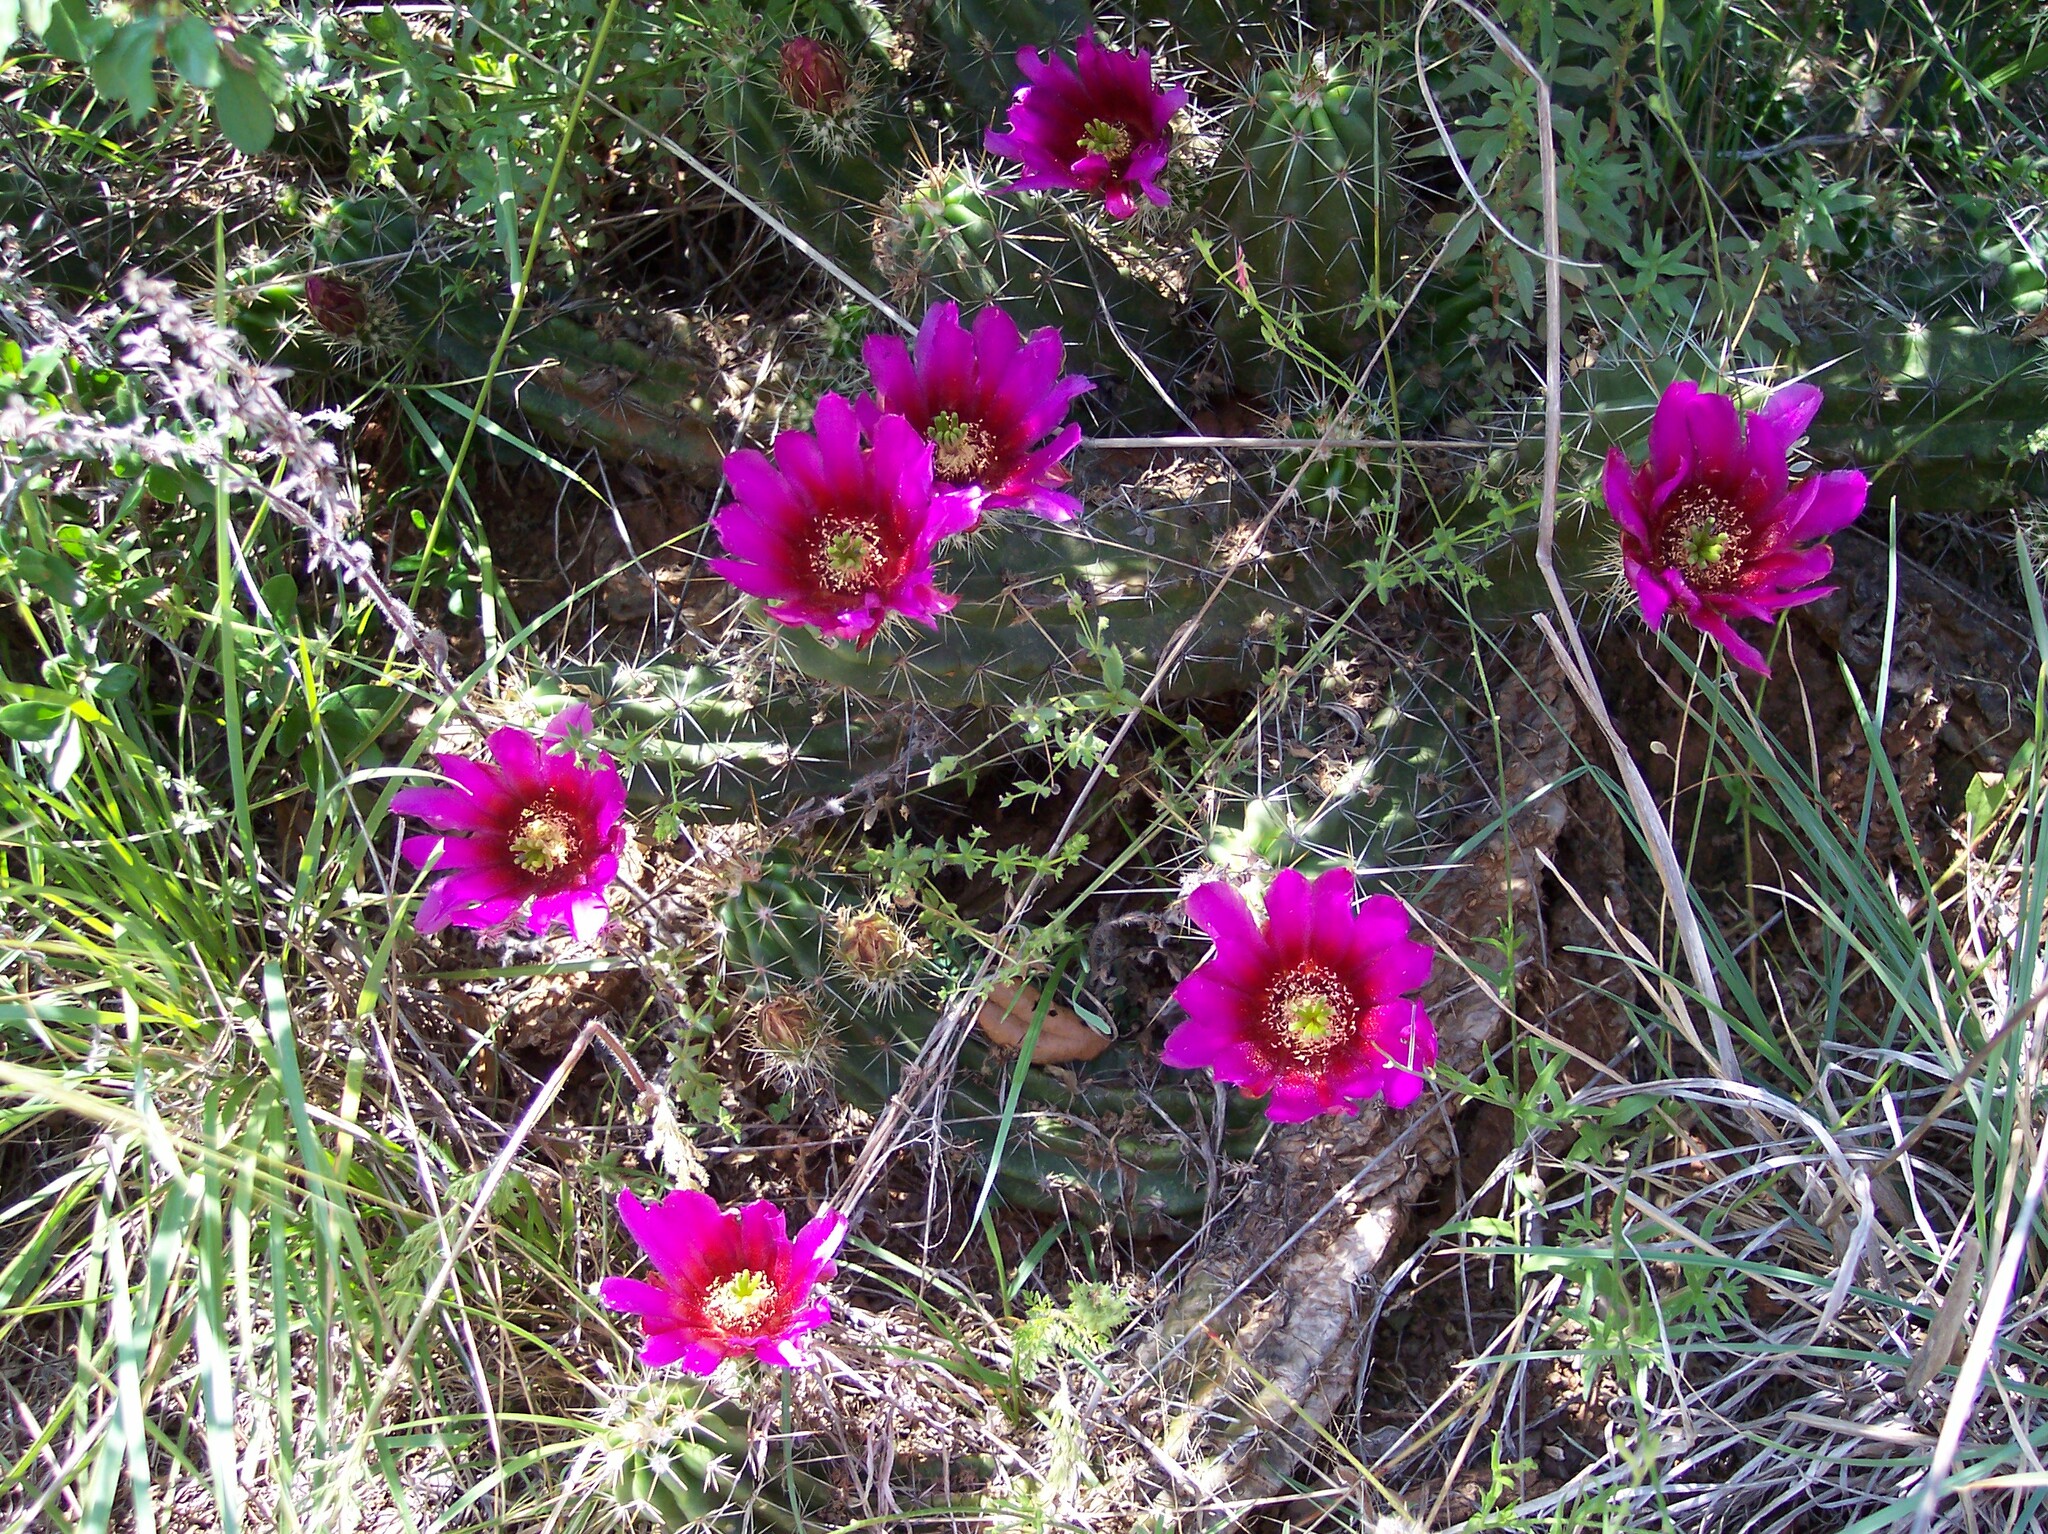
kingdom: Plantae
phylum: Tracheophyta
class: Magnoliopsida
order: Caryophyllales
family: Cactaceae
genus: Echinocereus
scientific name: Echinocereus enneacanthus
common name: Pitaya
